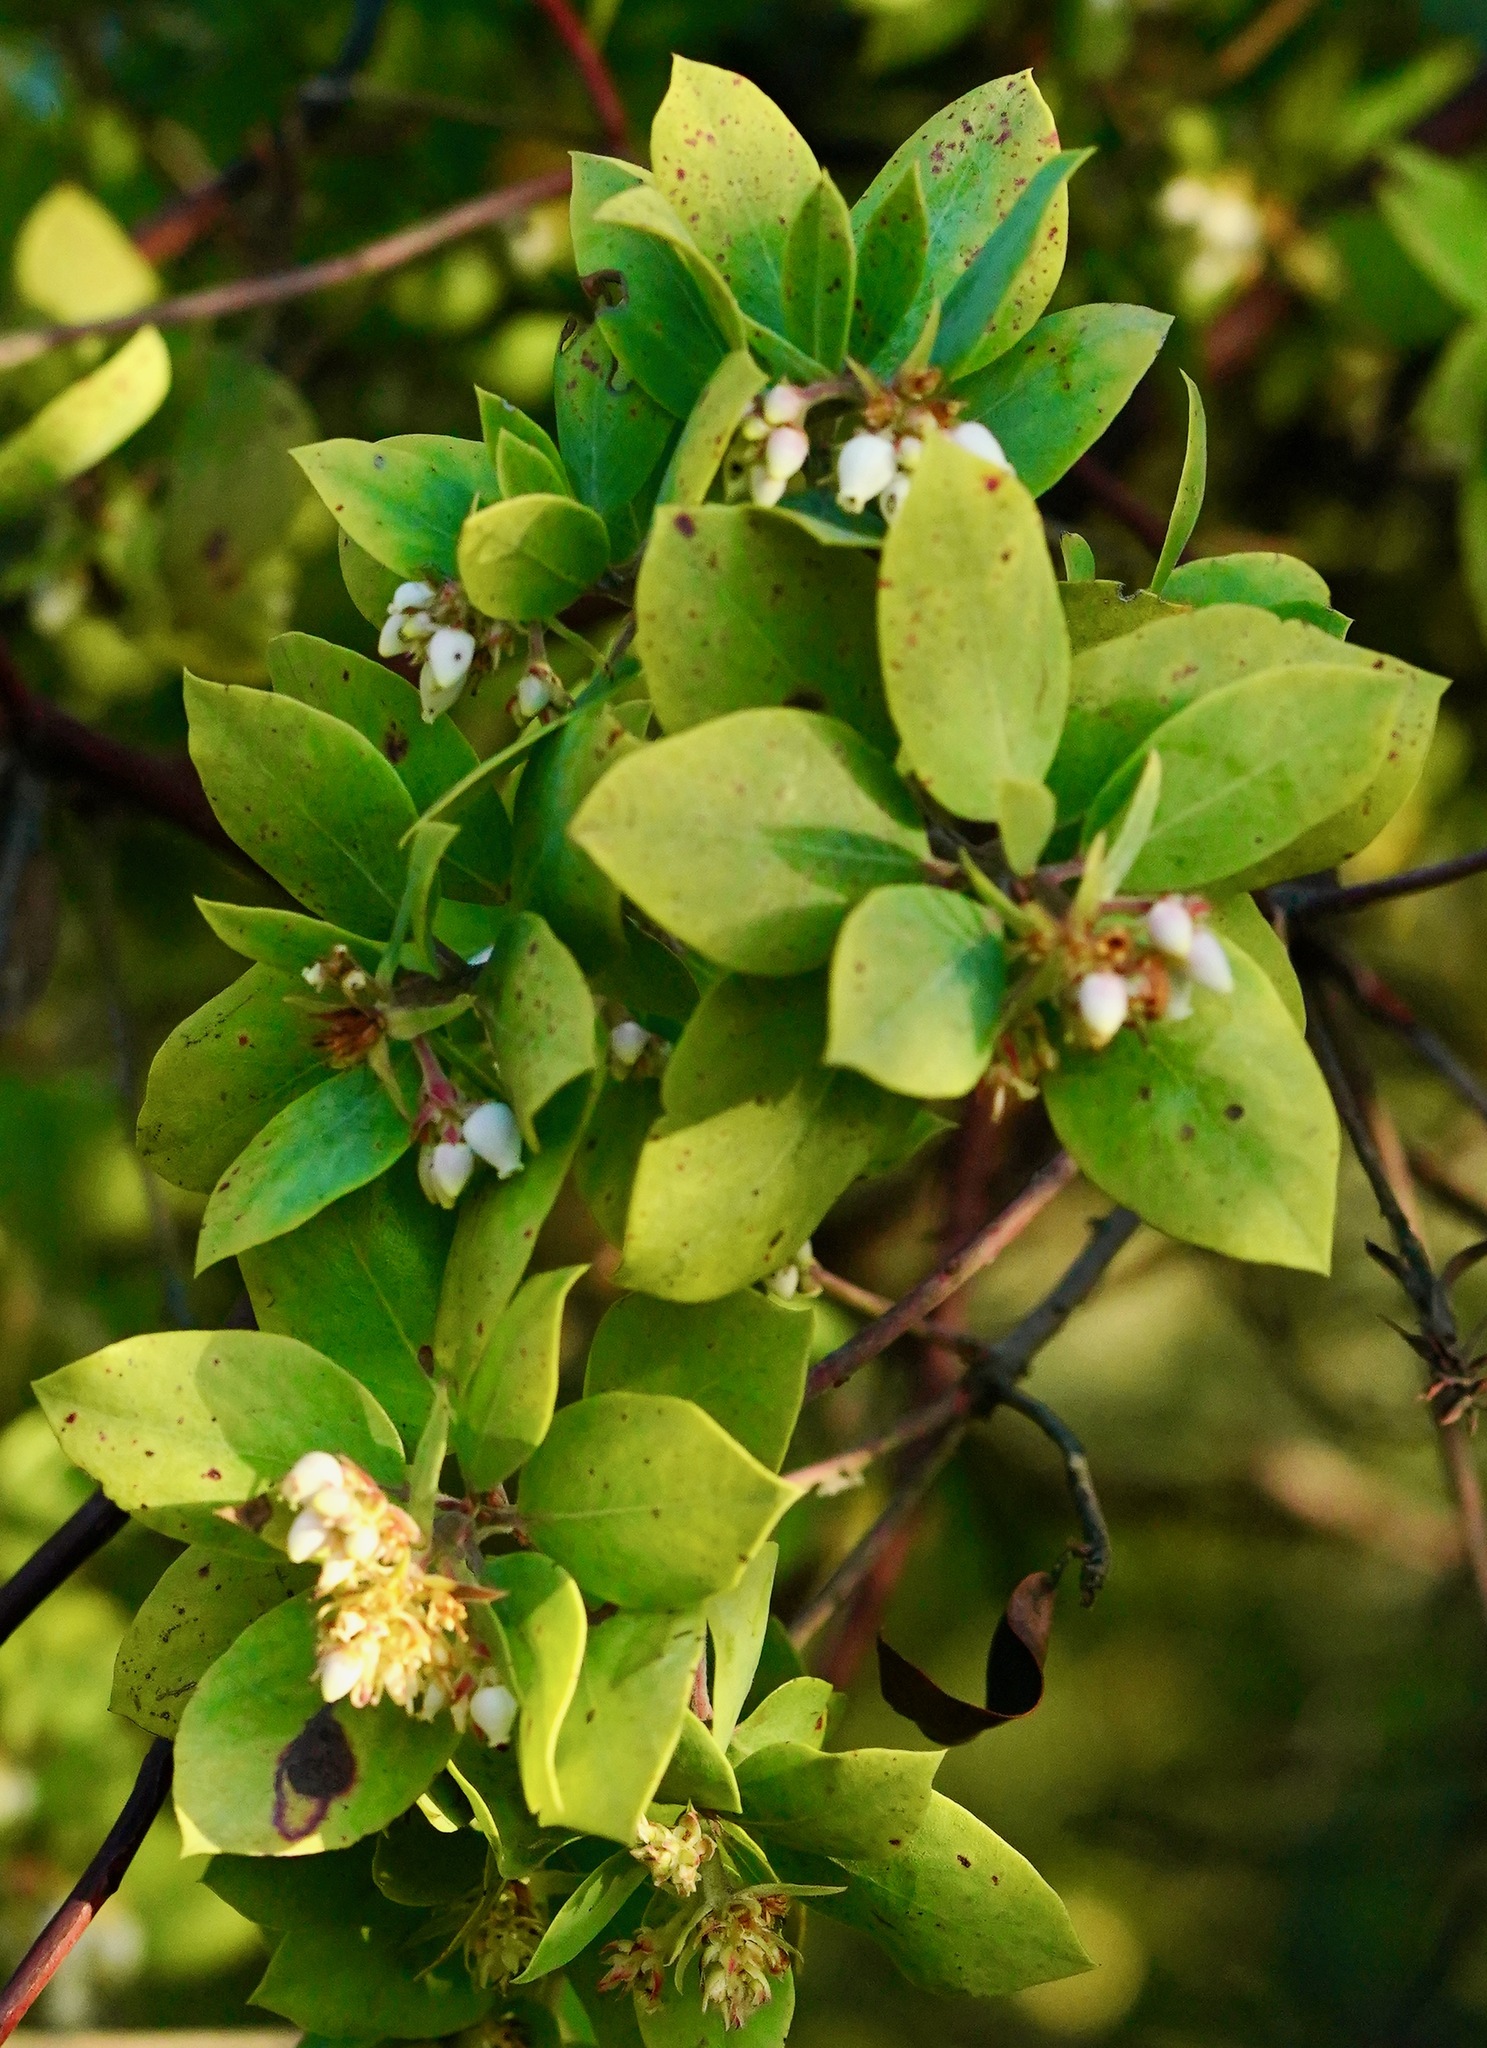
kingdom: Plantae
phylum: Tracheophyta
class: Magnoliopsida
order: Ericales
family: Ericaceae
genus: Arctostaphylos
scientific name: Arctostaphylos glandulosa
